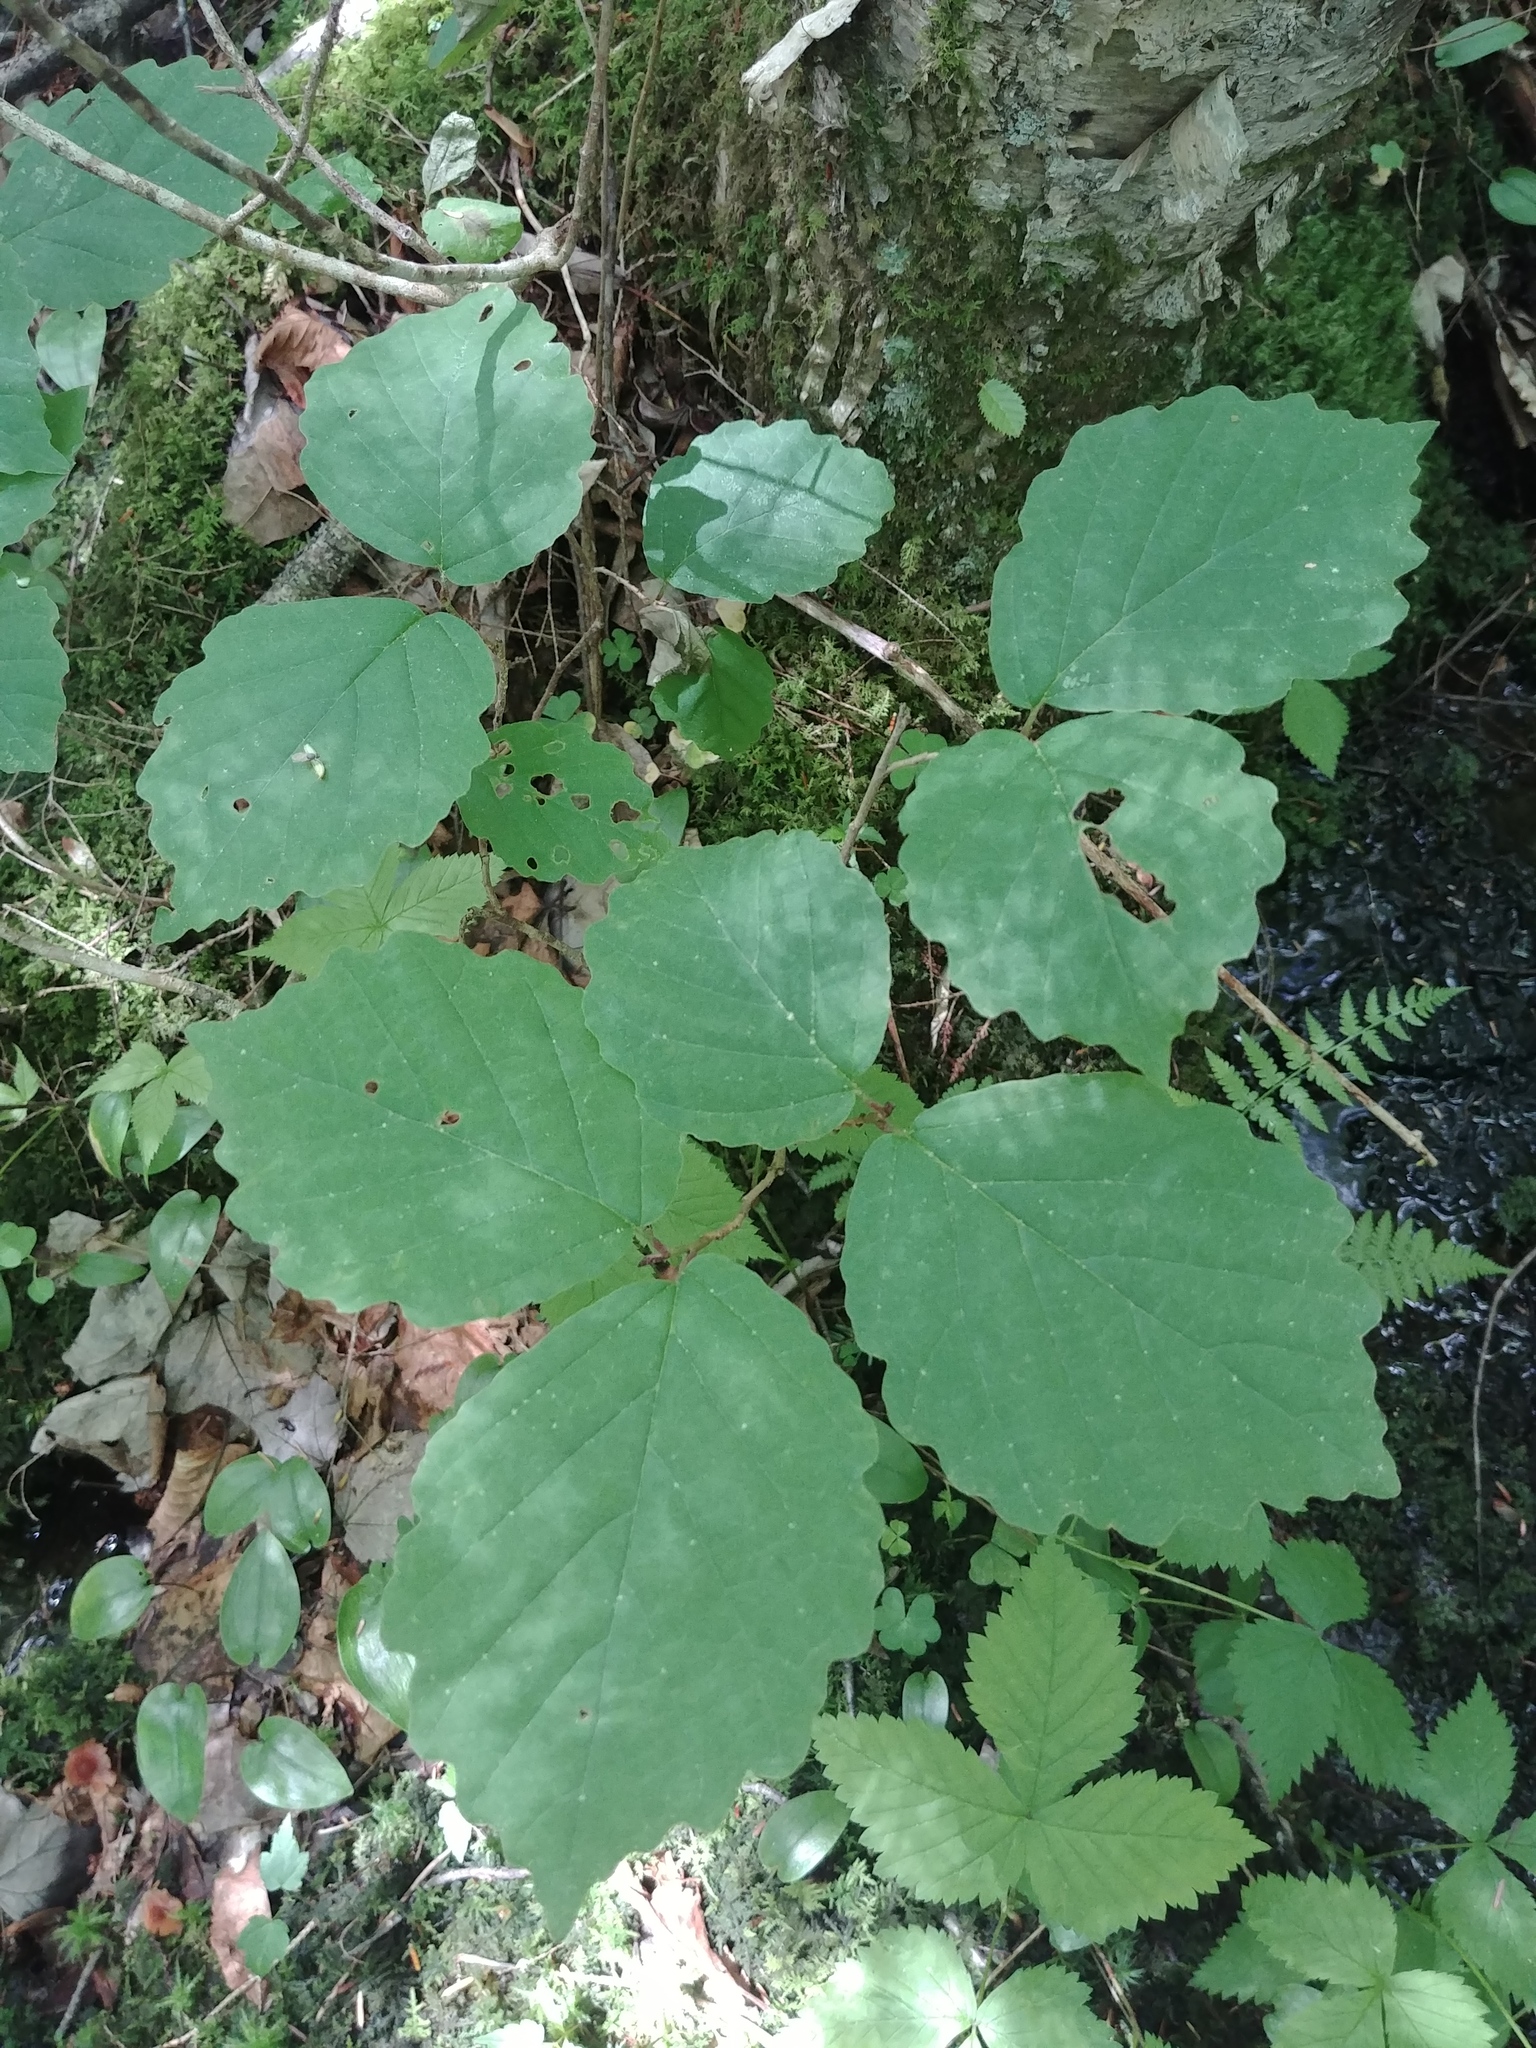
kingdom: Plantae
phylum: Tracheophyta
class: Magnoliopsida
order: Saxifragales
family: Hamamelidaceae
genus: Hamamelis
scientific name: Hamamelis virginiana
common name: Witch-hazel
